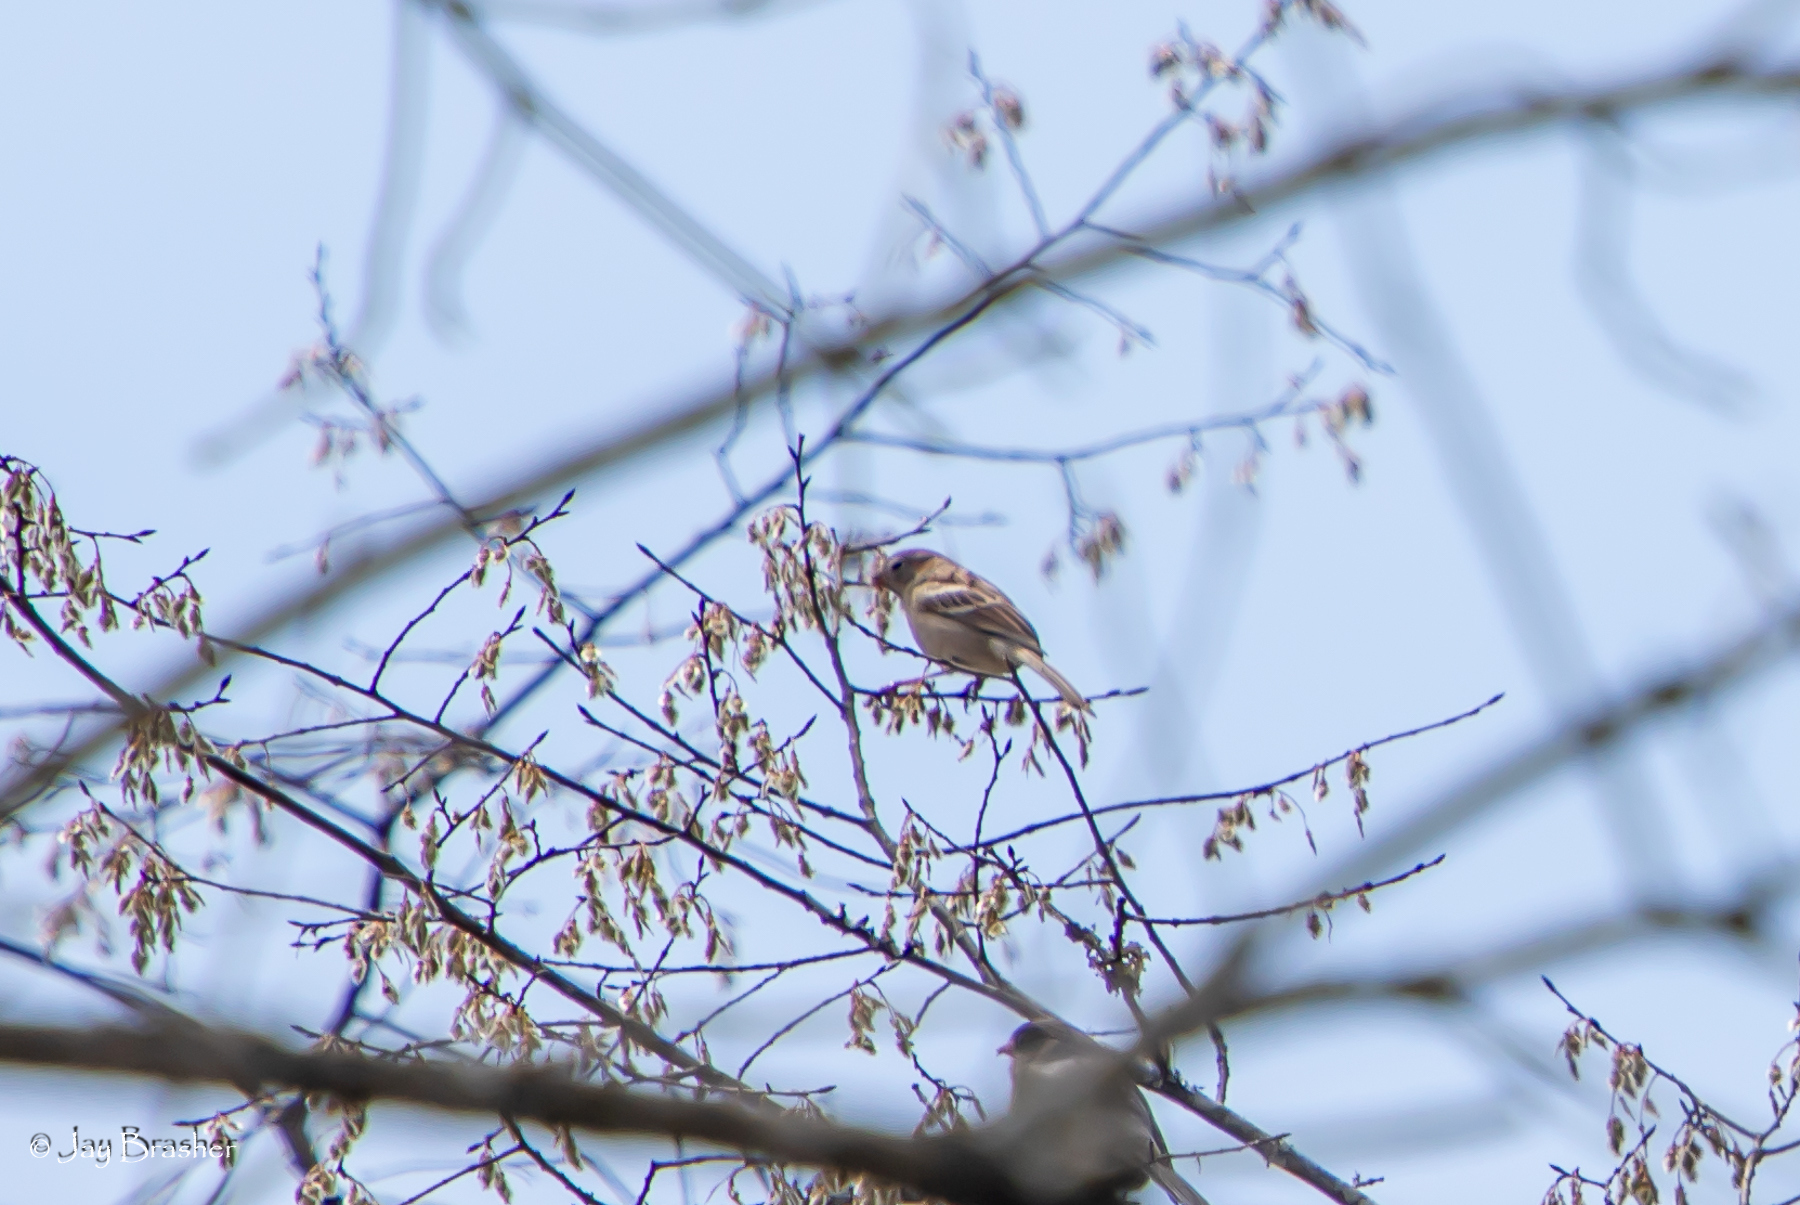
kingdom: Animalia
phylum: Chordata
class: Aves
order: Passeriformes
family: Passerellidae
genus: Spizella
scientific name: Spizella pusilla
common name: Field sparrow
